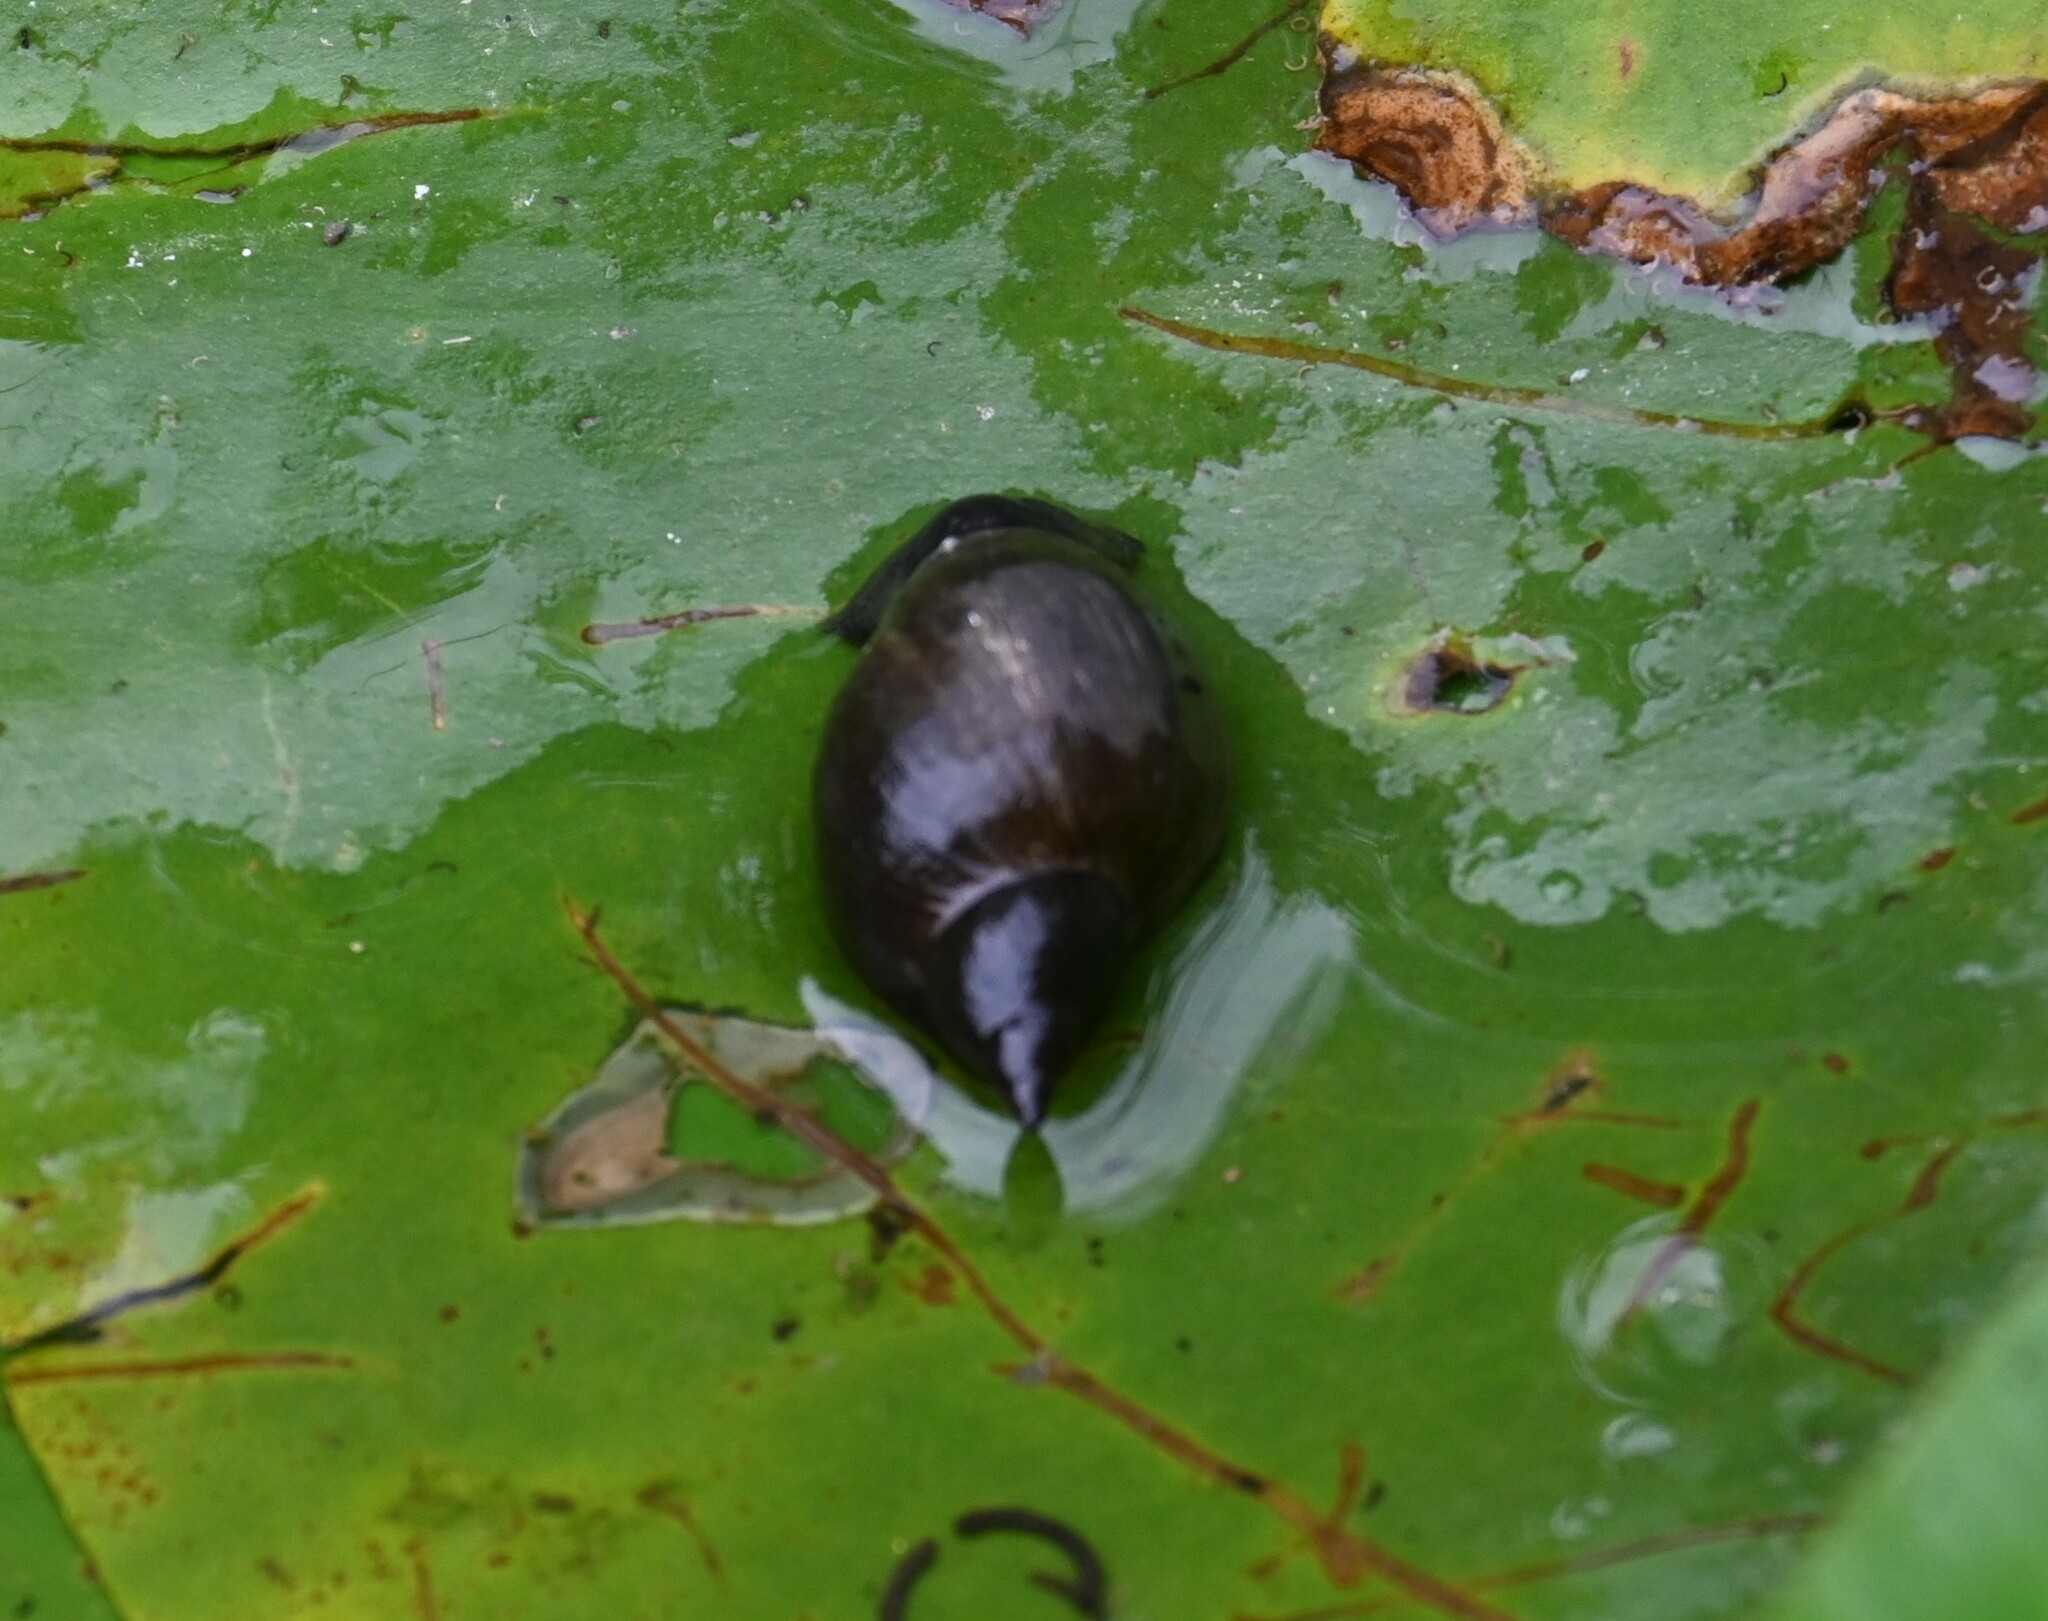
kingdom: Animalia
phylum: Mollusca
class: Gastropoda
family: Lymnaeidae
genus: Lymnaea
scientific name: Lymnaea stagnalis
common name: Great pond snail
